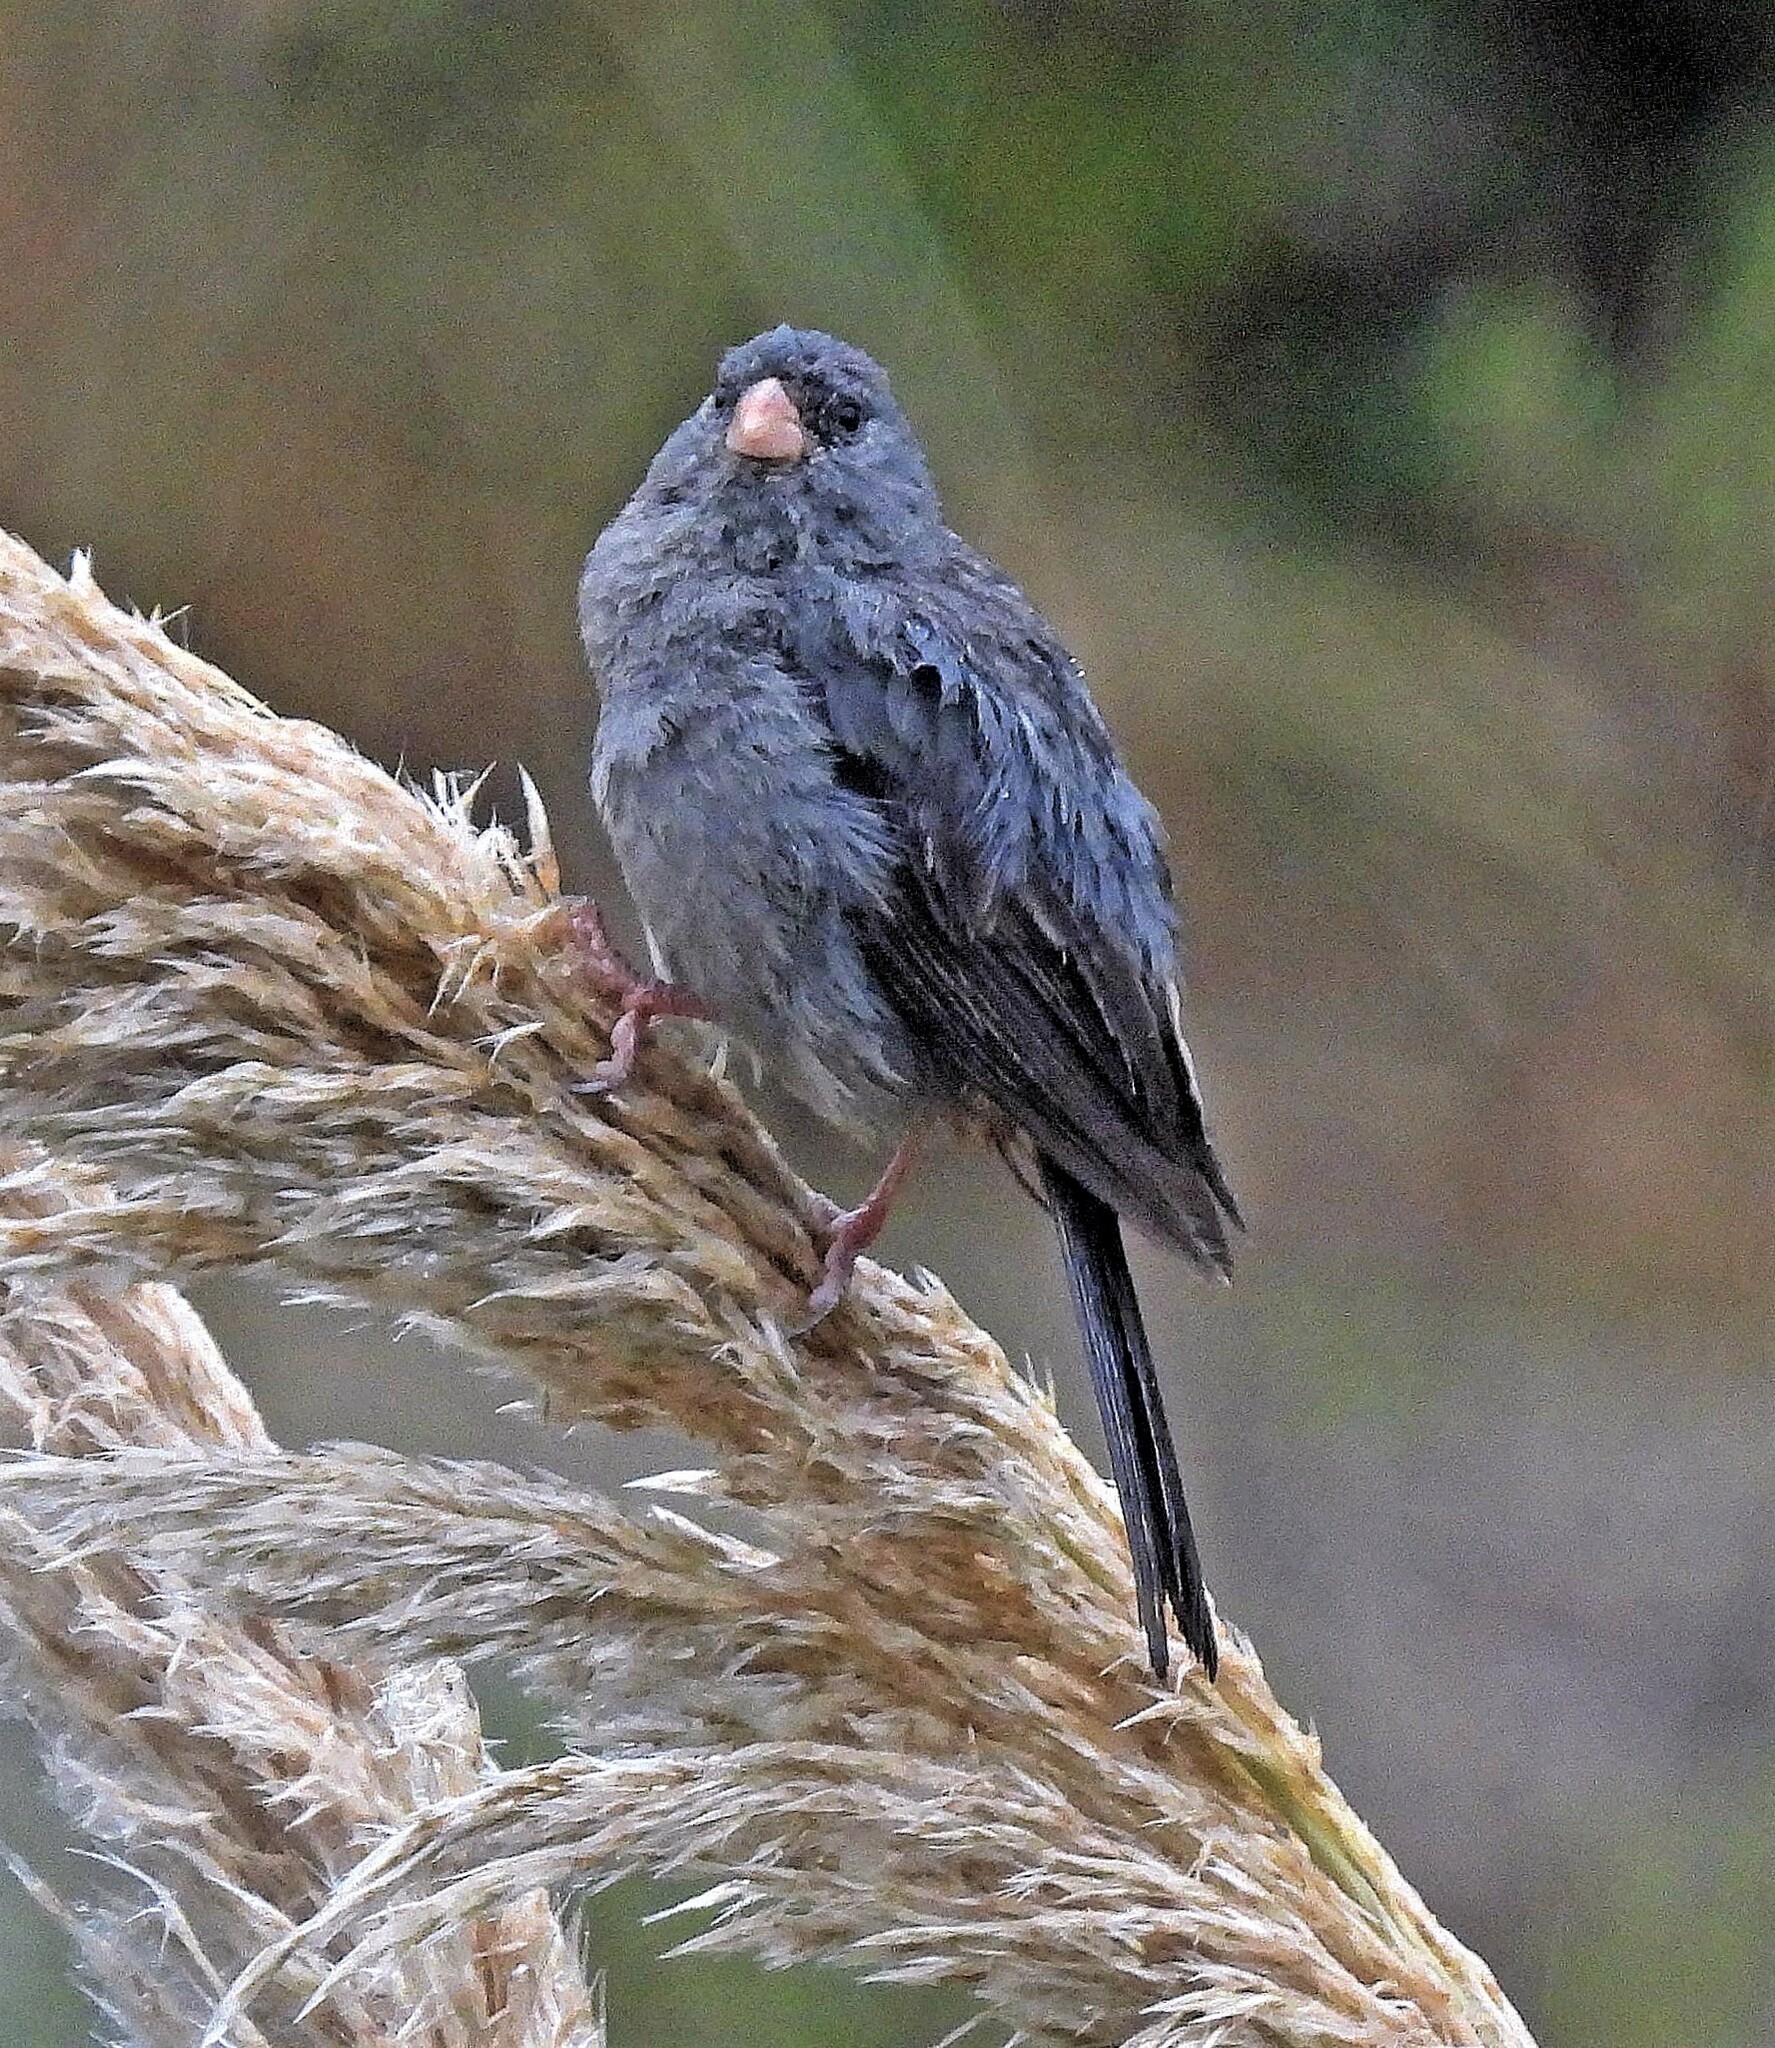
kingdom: Animalia
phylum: Chordata
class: Aves
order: Passeriformes
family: Thraupidae
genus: Catamenia
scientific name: Catamenia inornata
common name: Plain-colored seedeater
